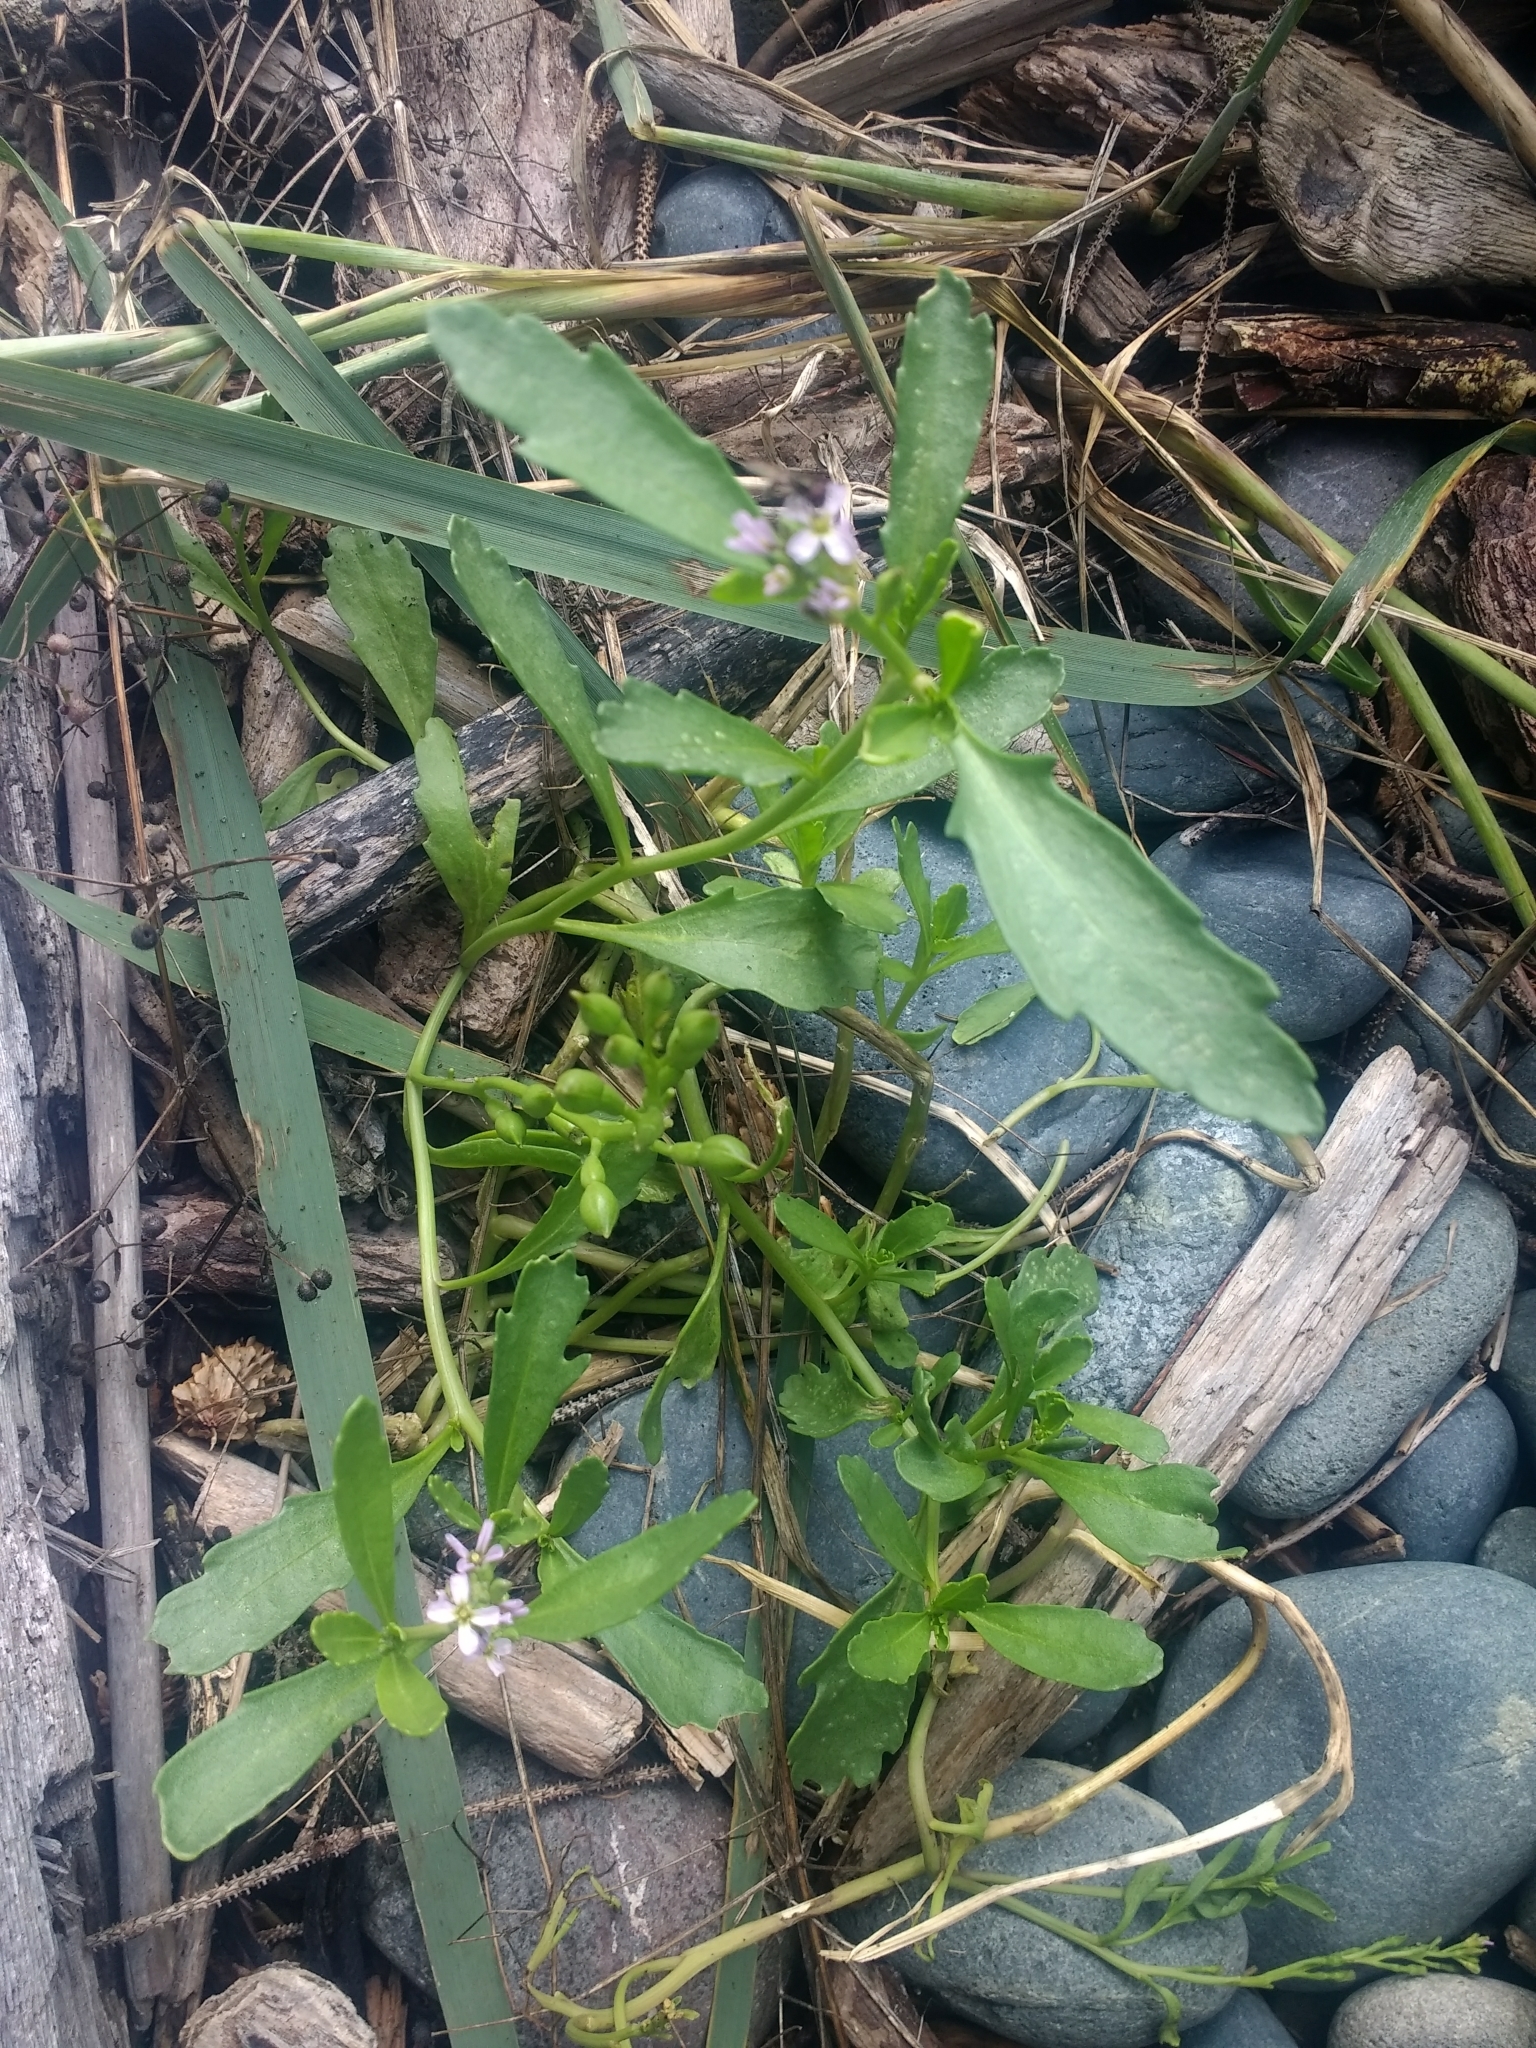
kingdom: Plantae
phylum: Tracheophyta
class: Magnoliopsida
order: Brassicales
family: Brassicaceae
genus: Cakile
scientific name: Cakile edentula
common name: American sea rocket
